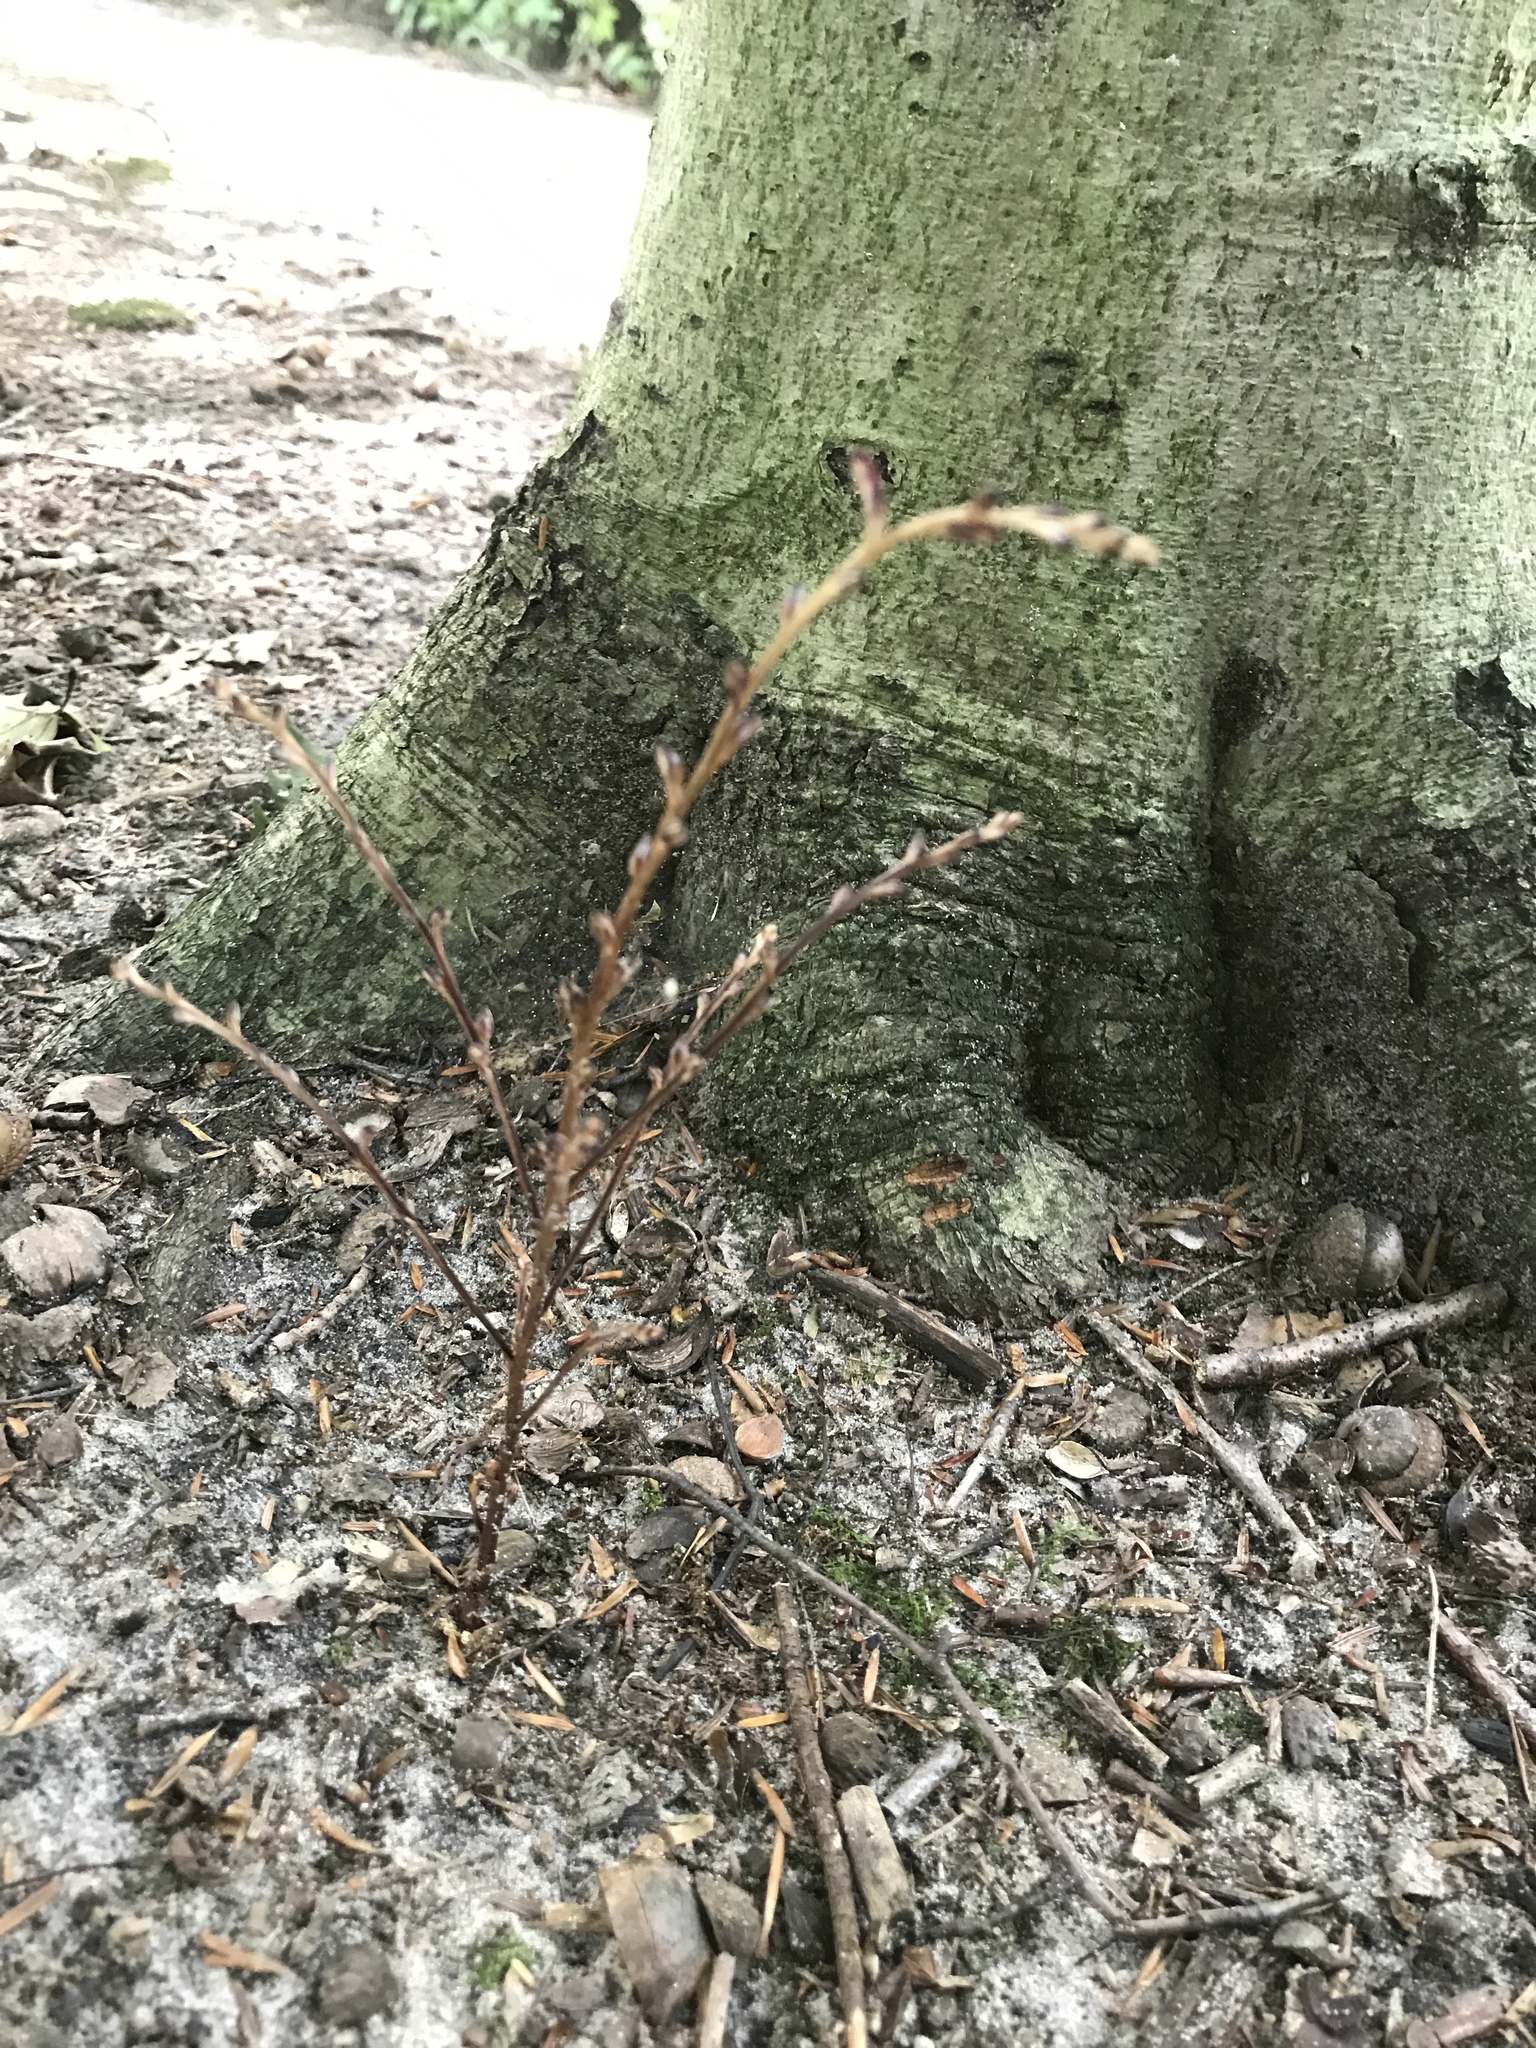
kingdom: Plantae
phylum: Tracheophyta
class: Magnoliopsida
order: Lamiales
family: Orobanchaceae
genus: Epifagus
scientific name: Epifagus virginiana
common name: Beechdrops
